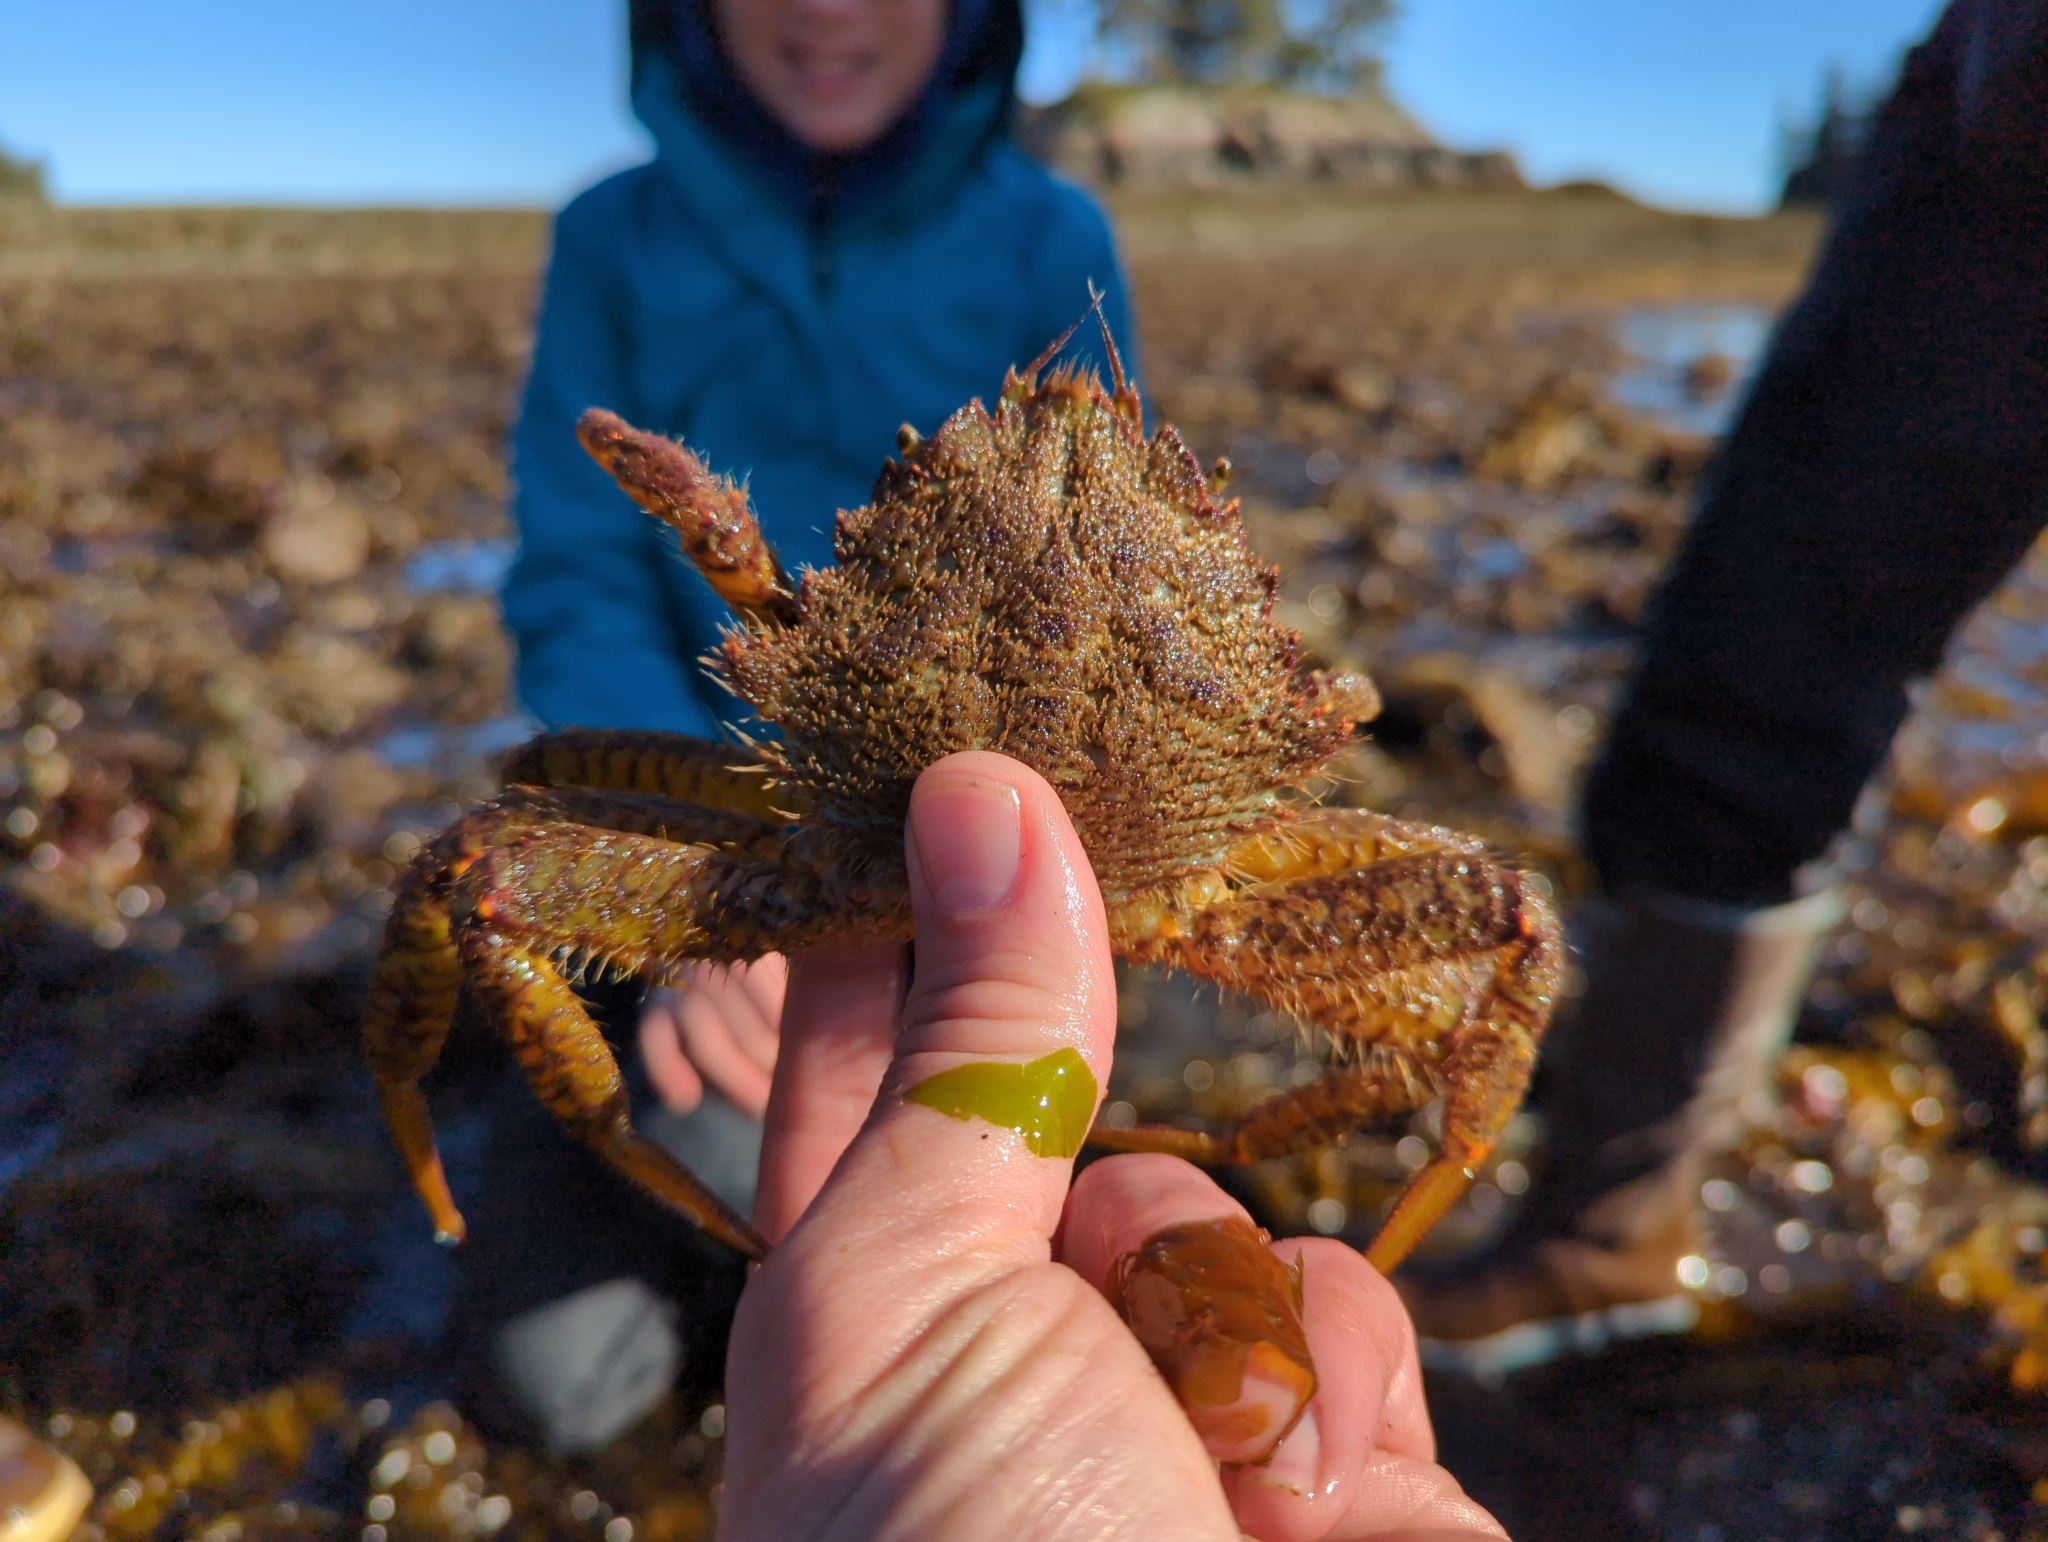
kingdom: Animalia
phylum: Arthropoda
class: Malacostraca
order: Decapoda
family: Cheiragonidae
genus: Telmessus
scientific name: Telmessus cheiragonus
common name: Helmet crab
